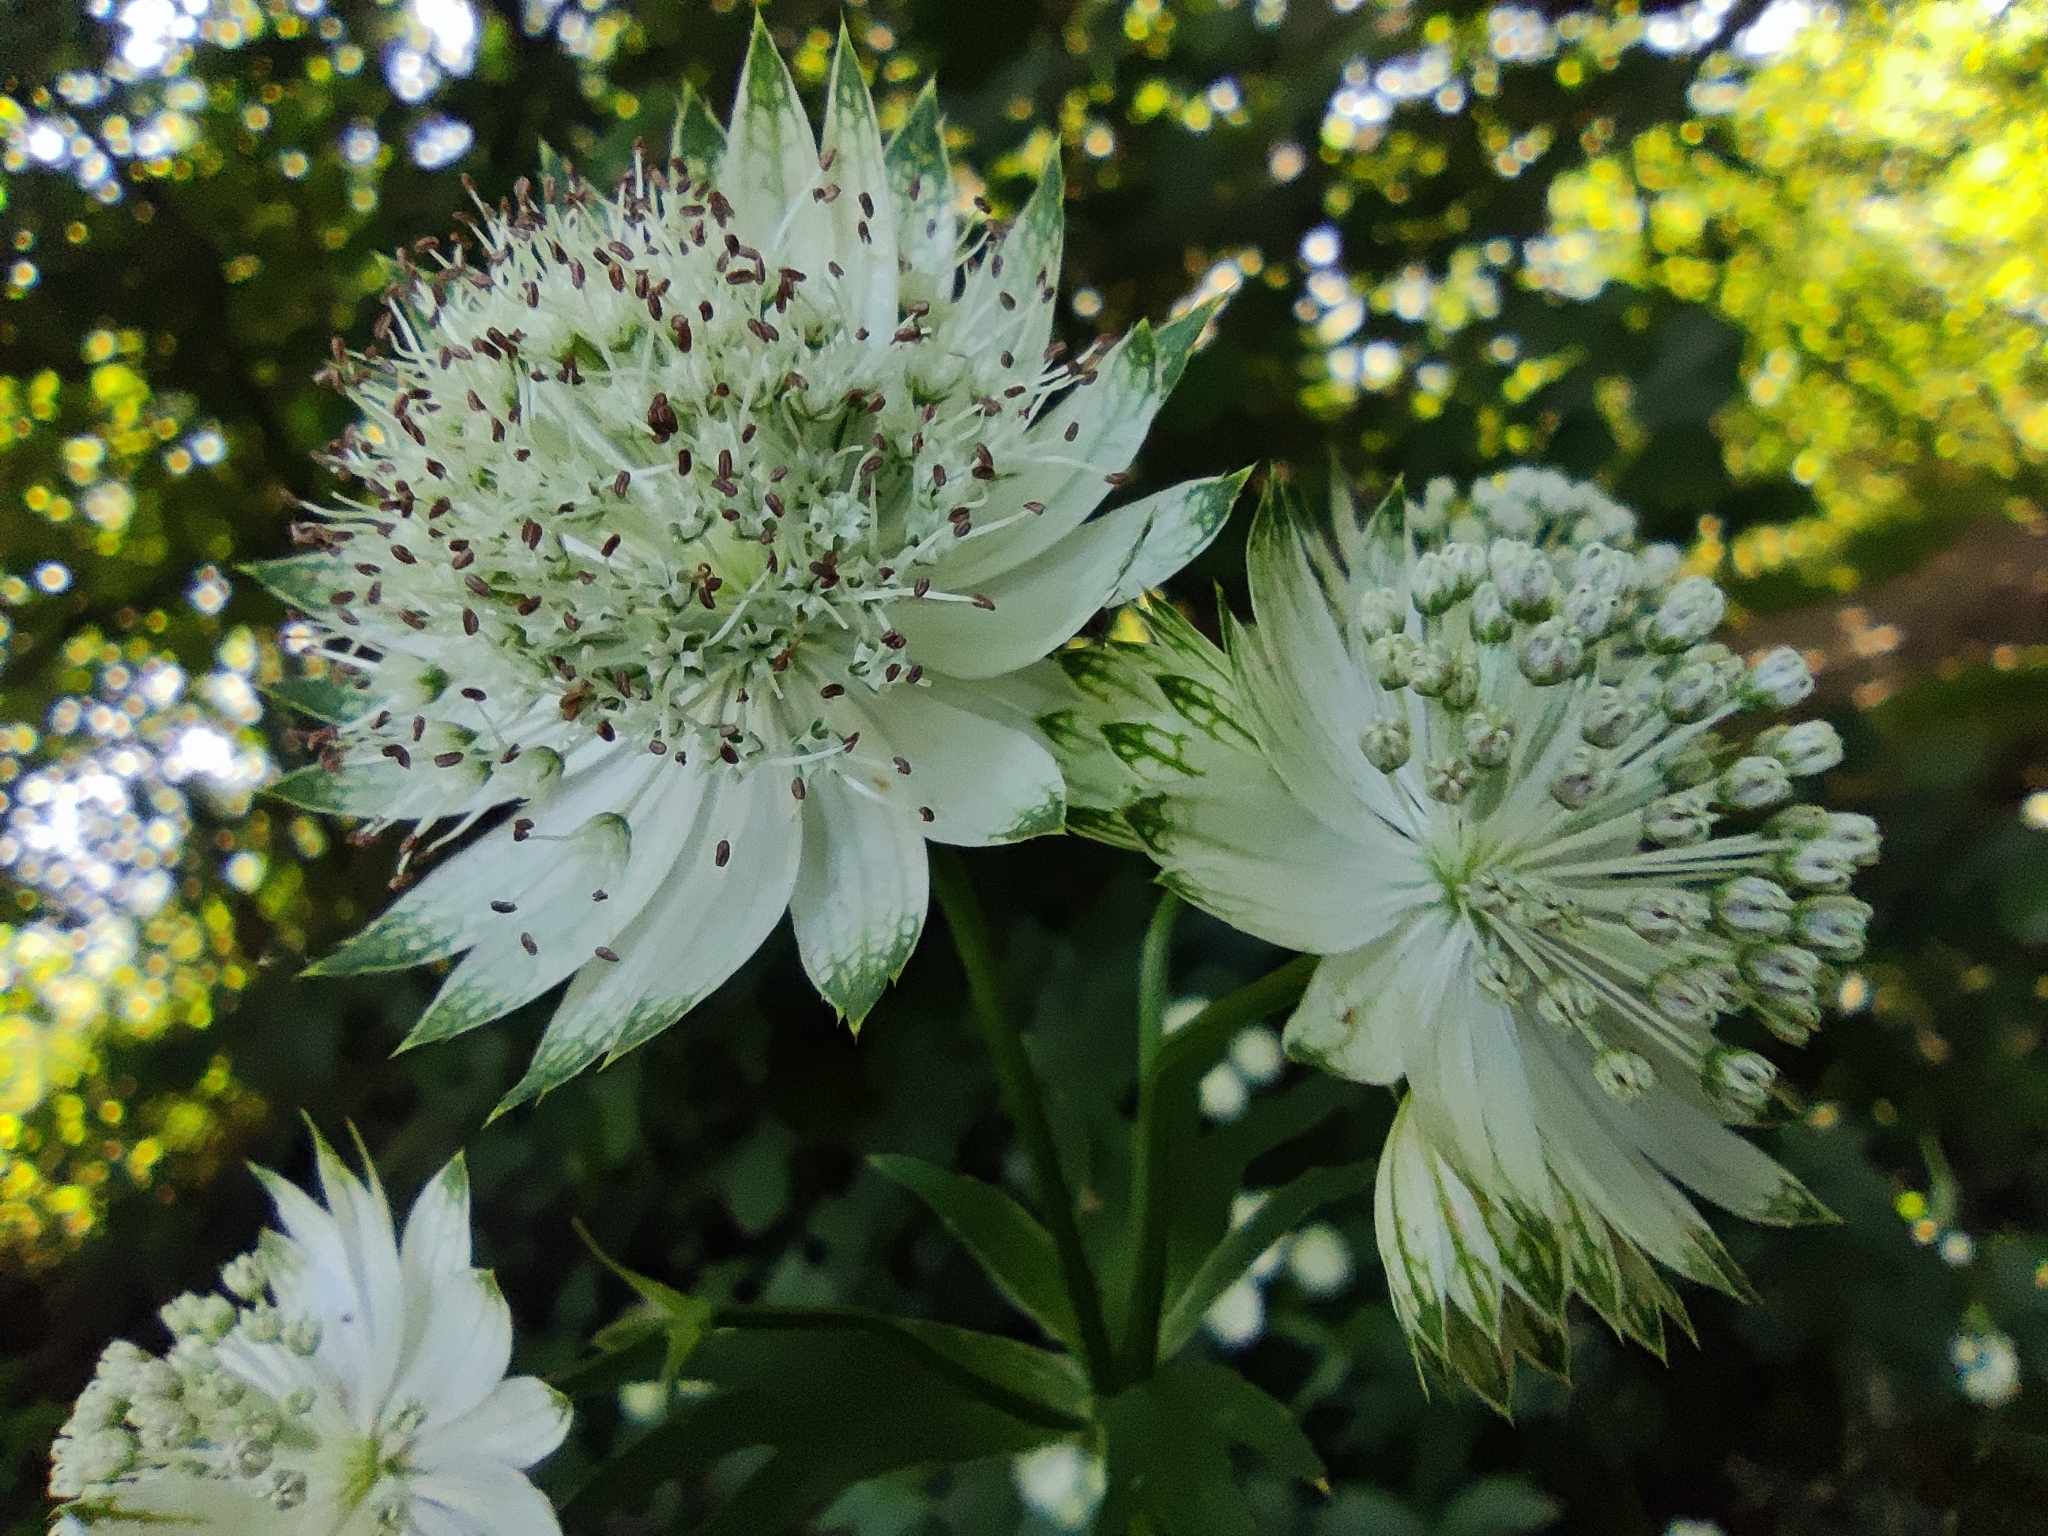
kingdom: Plantae
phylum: Tracheophyta
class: Magnoliopsida
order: Apiales
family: Apiaceae
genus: Astrantia
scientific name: Astrantia major
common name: Greater masterwort
